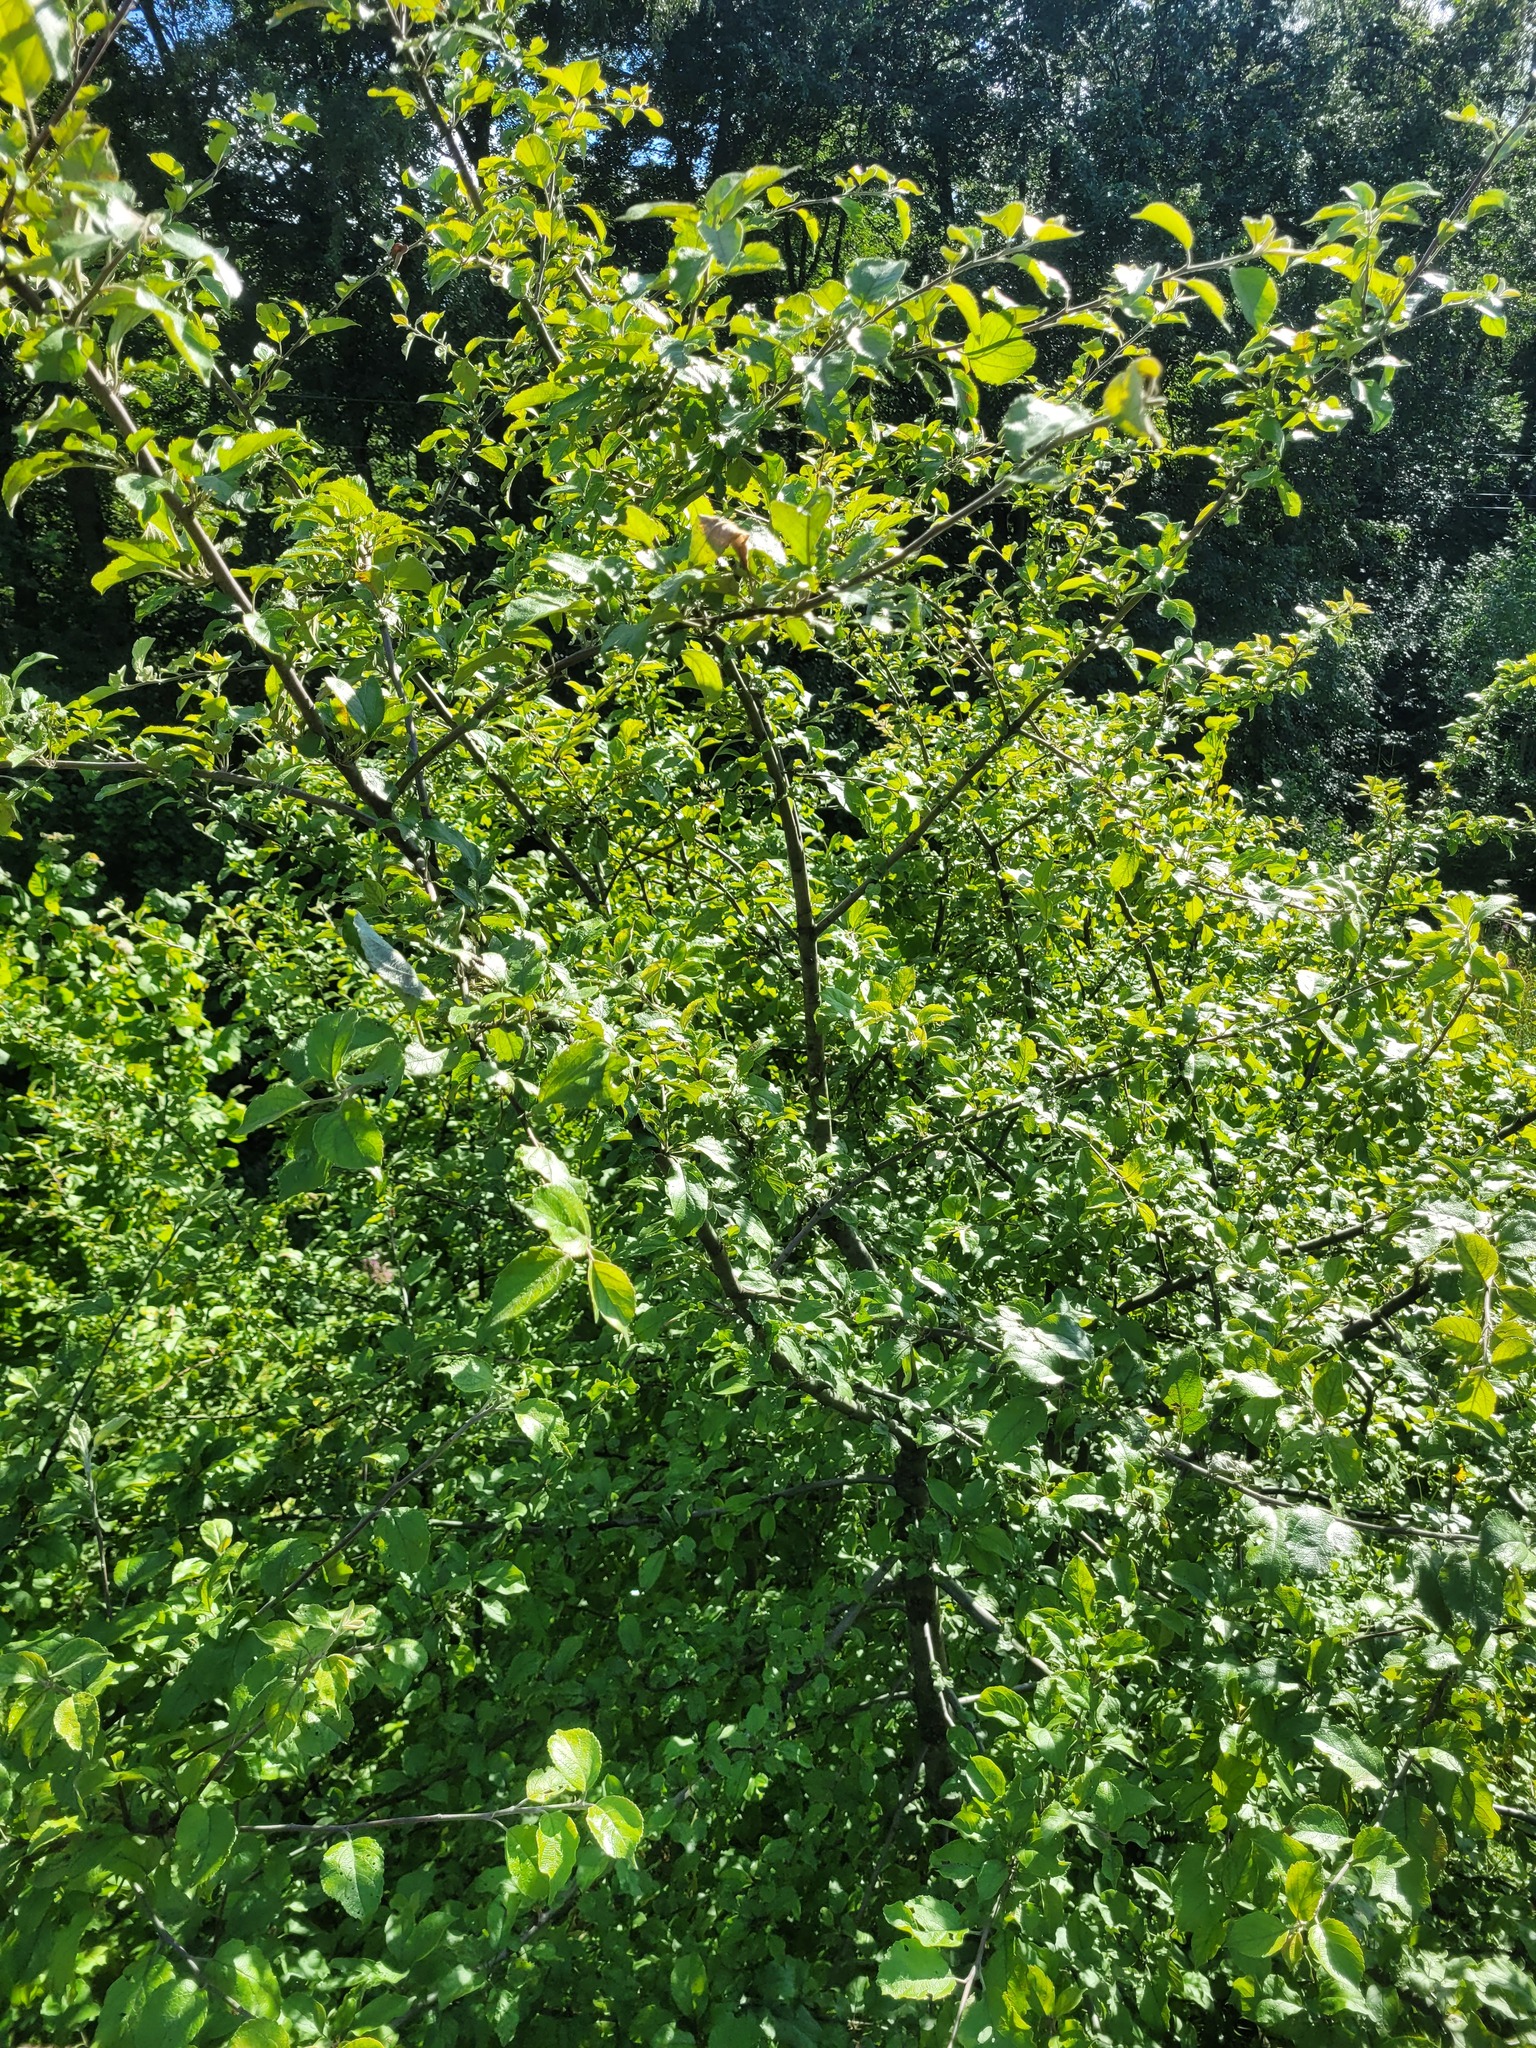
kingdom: Plantae
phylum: Tracheophyta
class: Magnoliopsida
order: Rosales
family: Rosaceae
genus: Malus
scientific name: Malus domestica
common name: Apple
